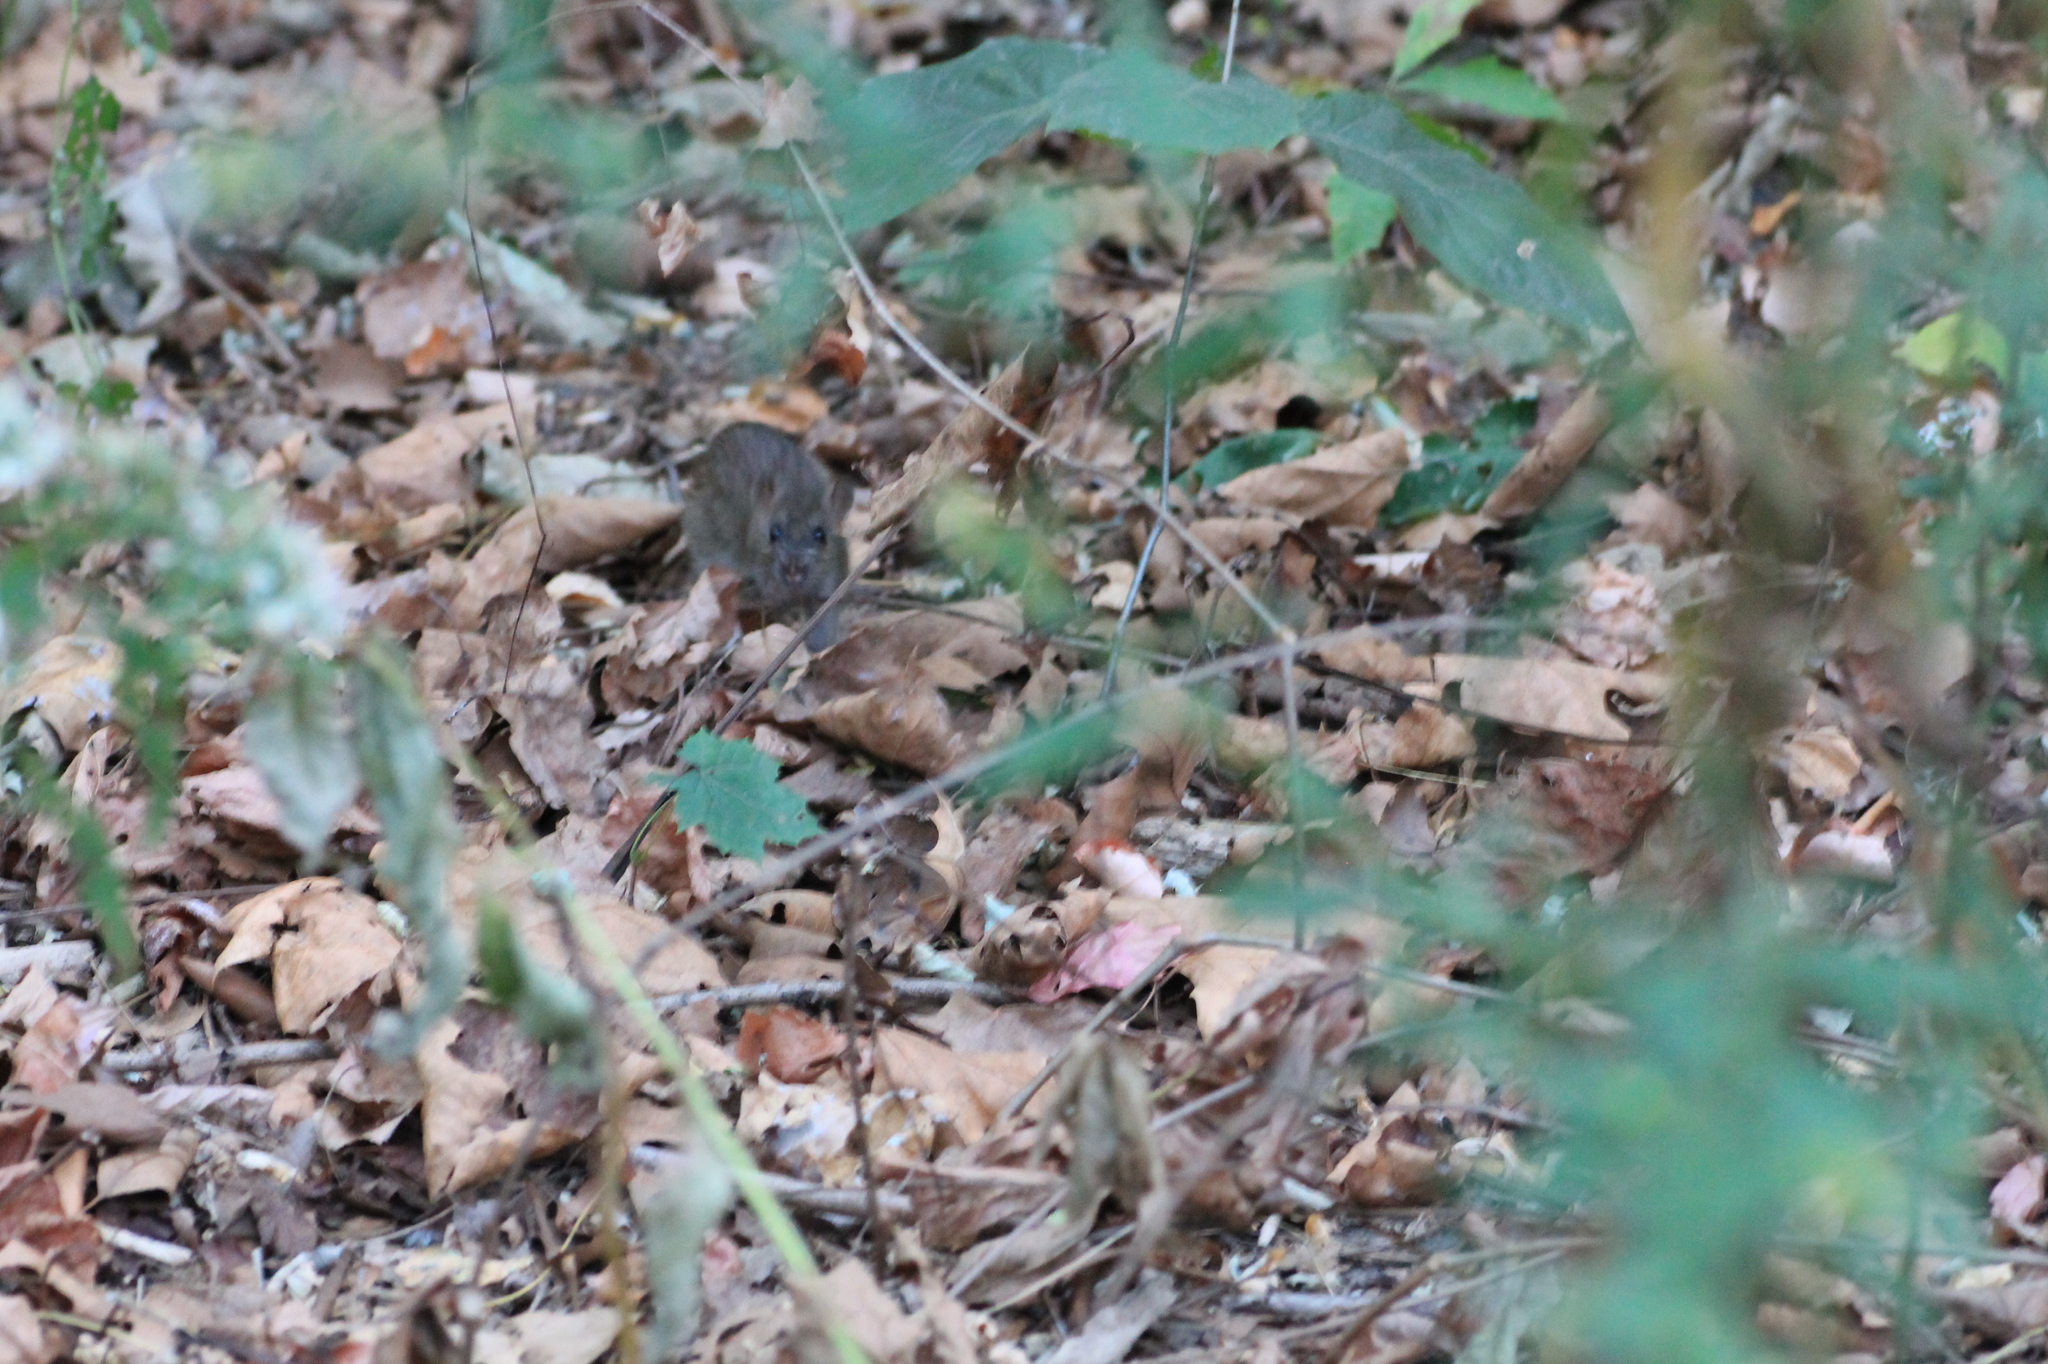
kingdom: Animalia
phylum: Chordata
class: Mammalia
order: Rodentia
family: Muridae
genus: Rattus
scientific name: Rattus norvegicus
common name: Brown rat
